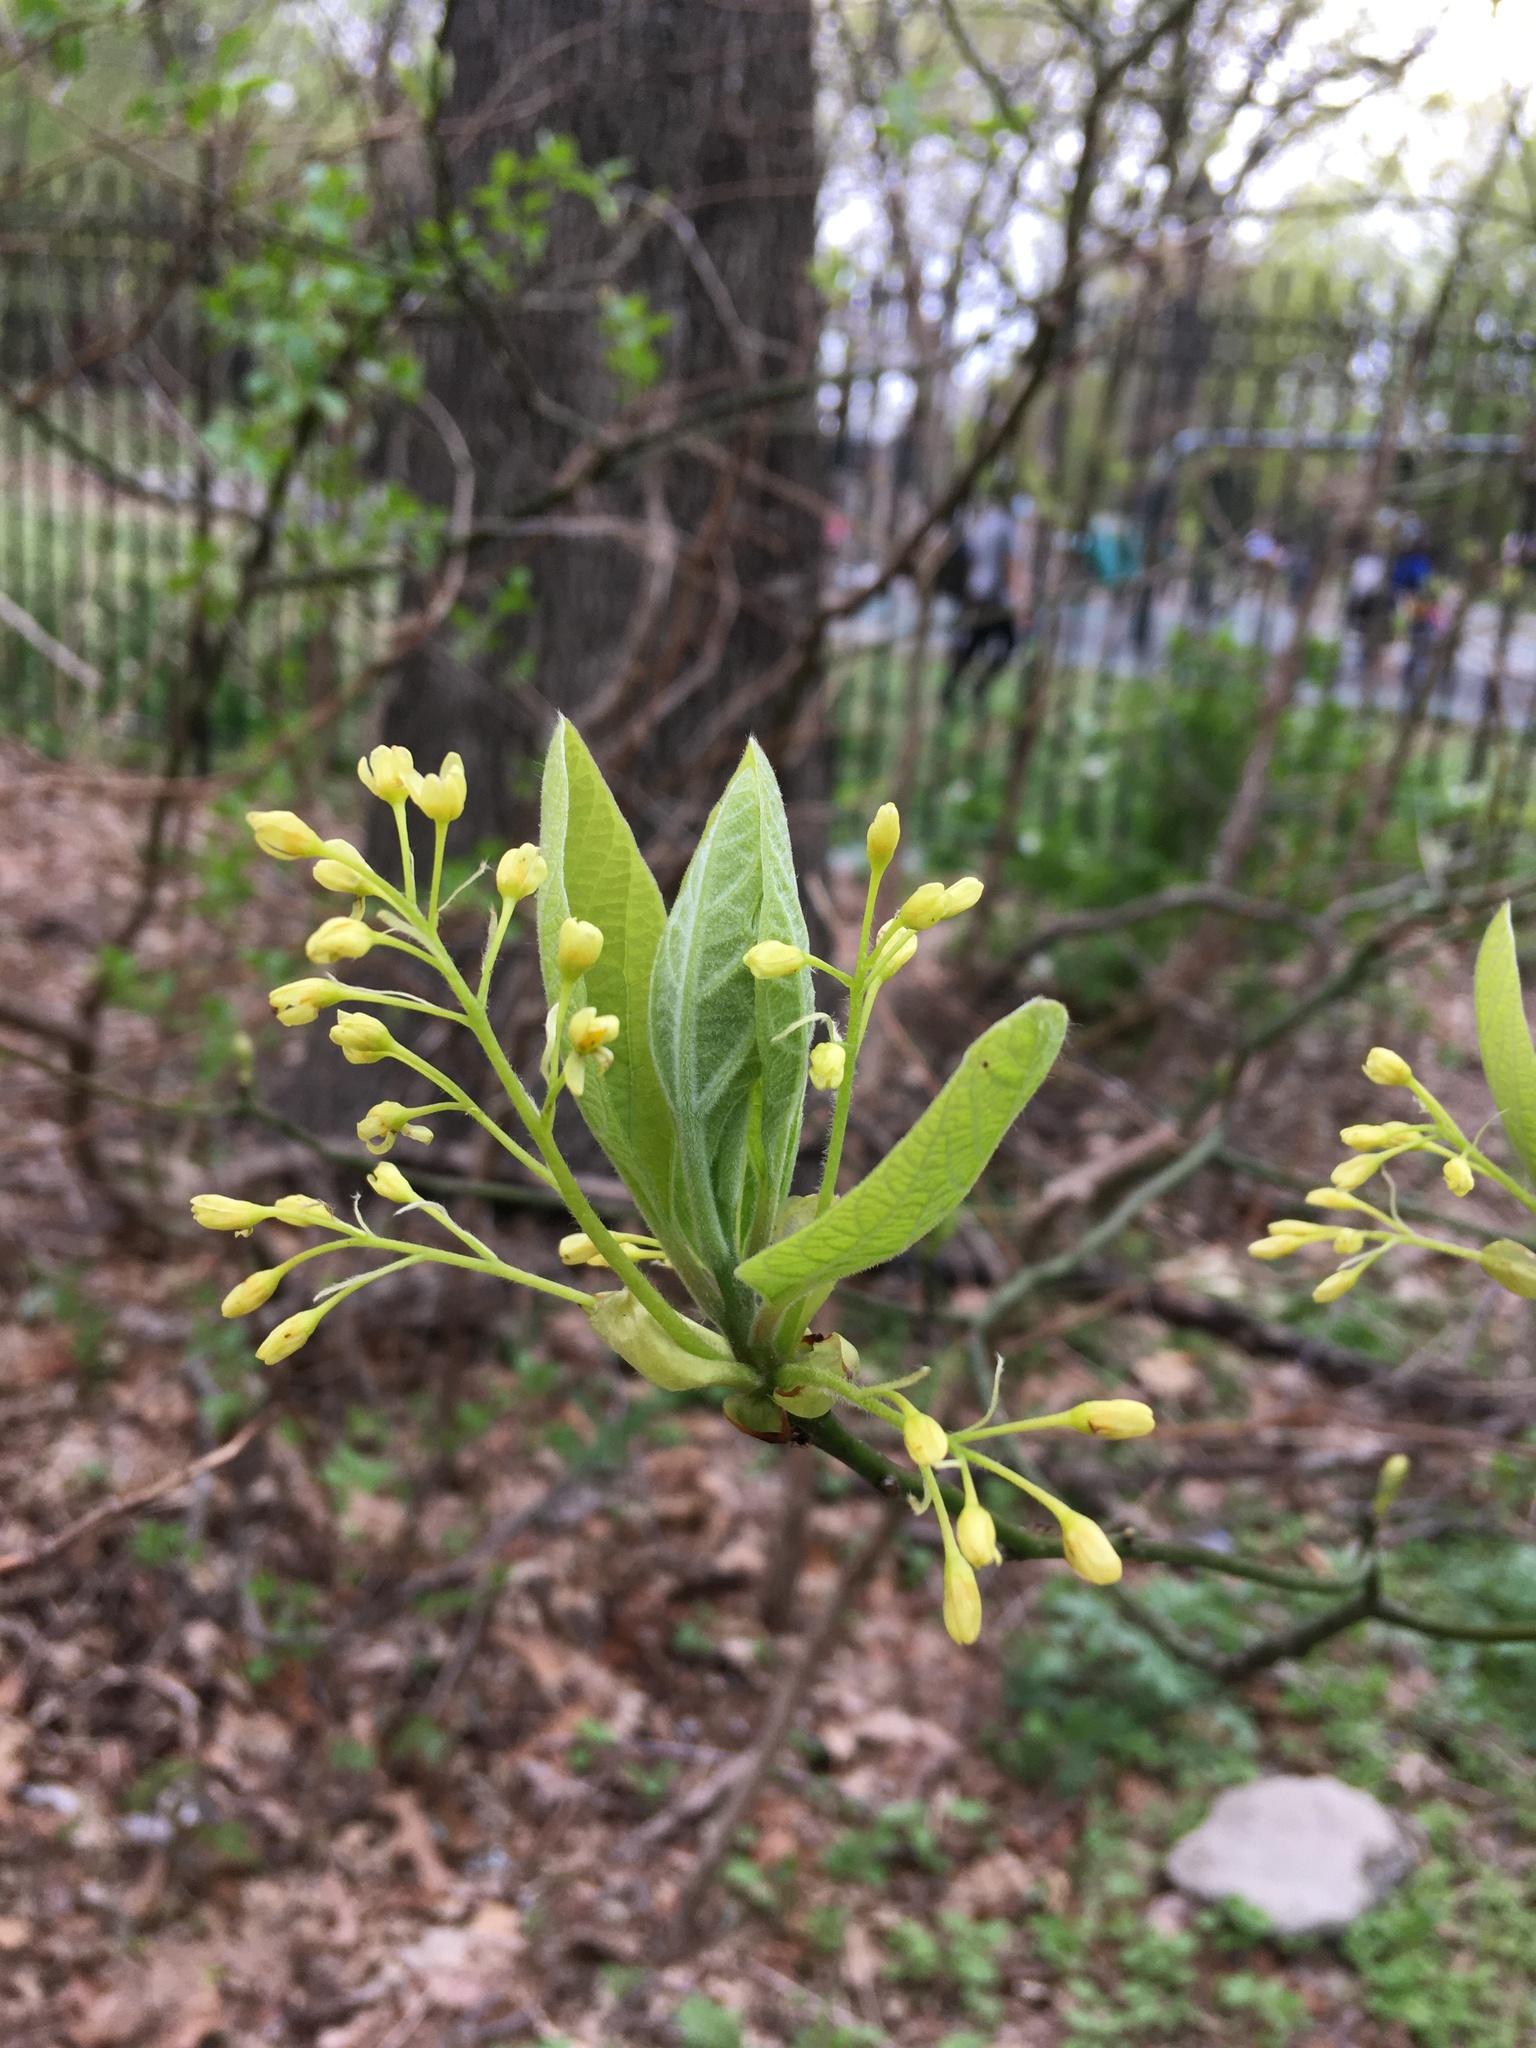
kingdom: Plantae
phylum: Tracheophyta
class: Magnoliopsida
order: Laurales
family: Lauraceae
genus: Sassafras
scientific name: Sassafras albidum
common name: Sassafras
